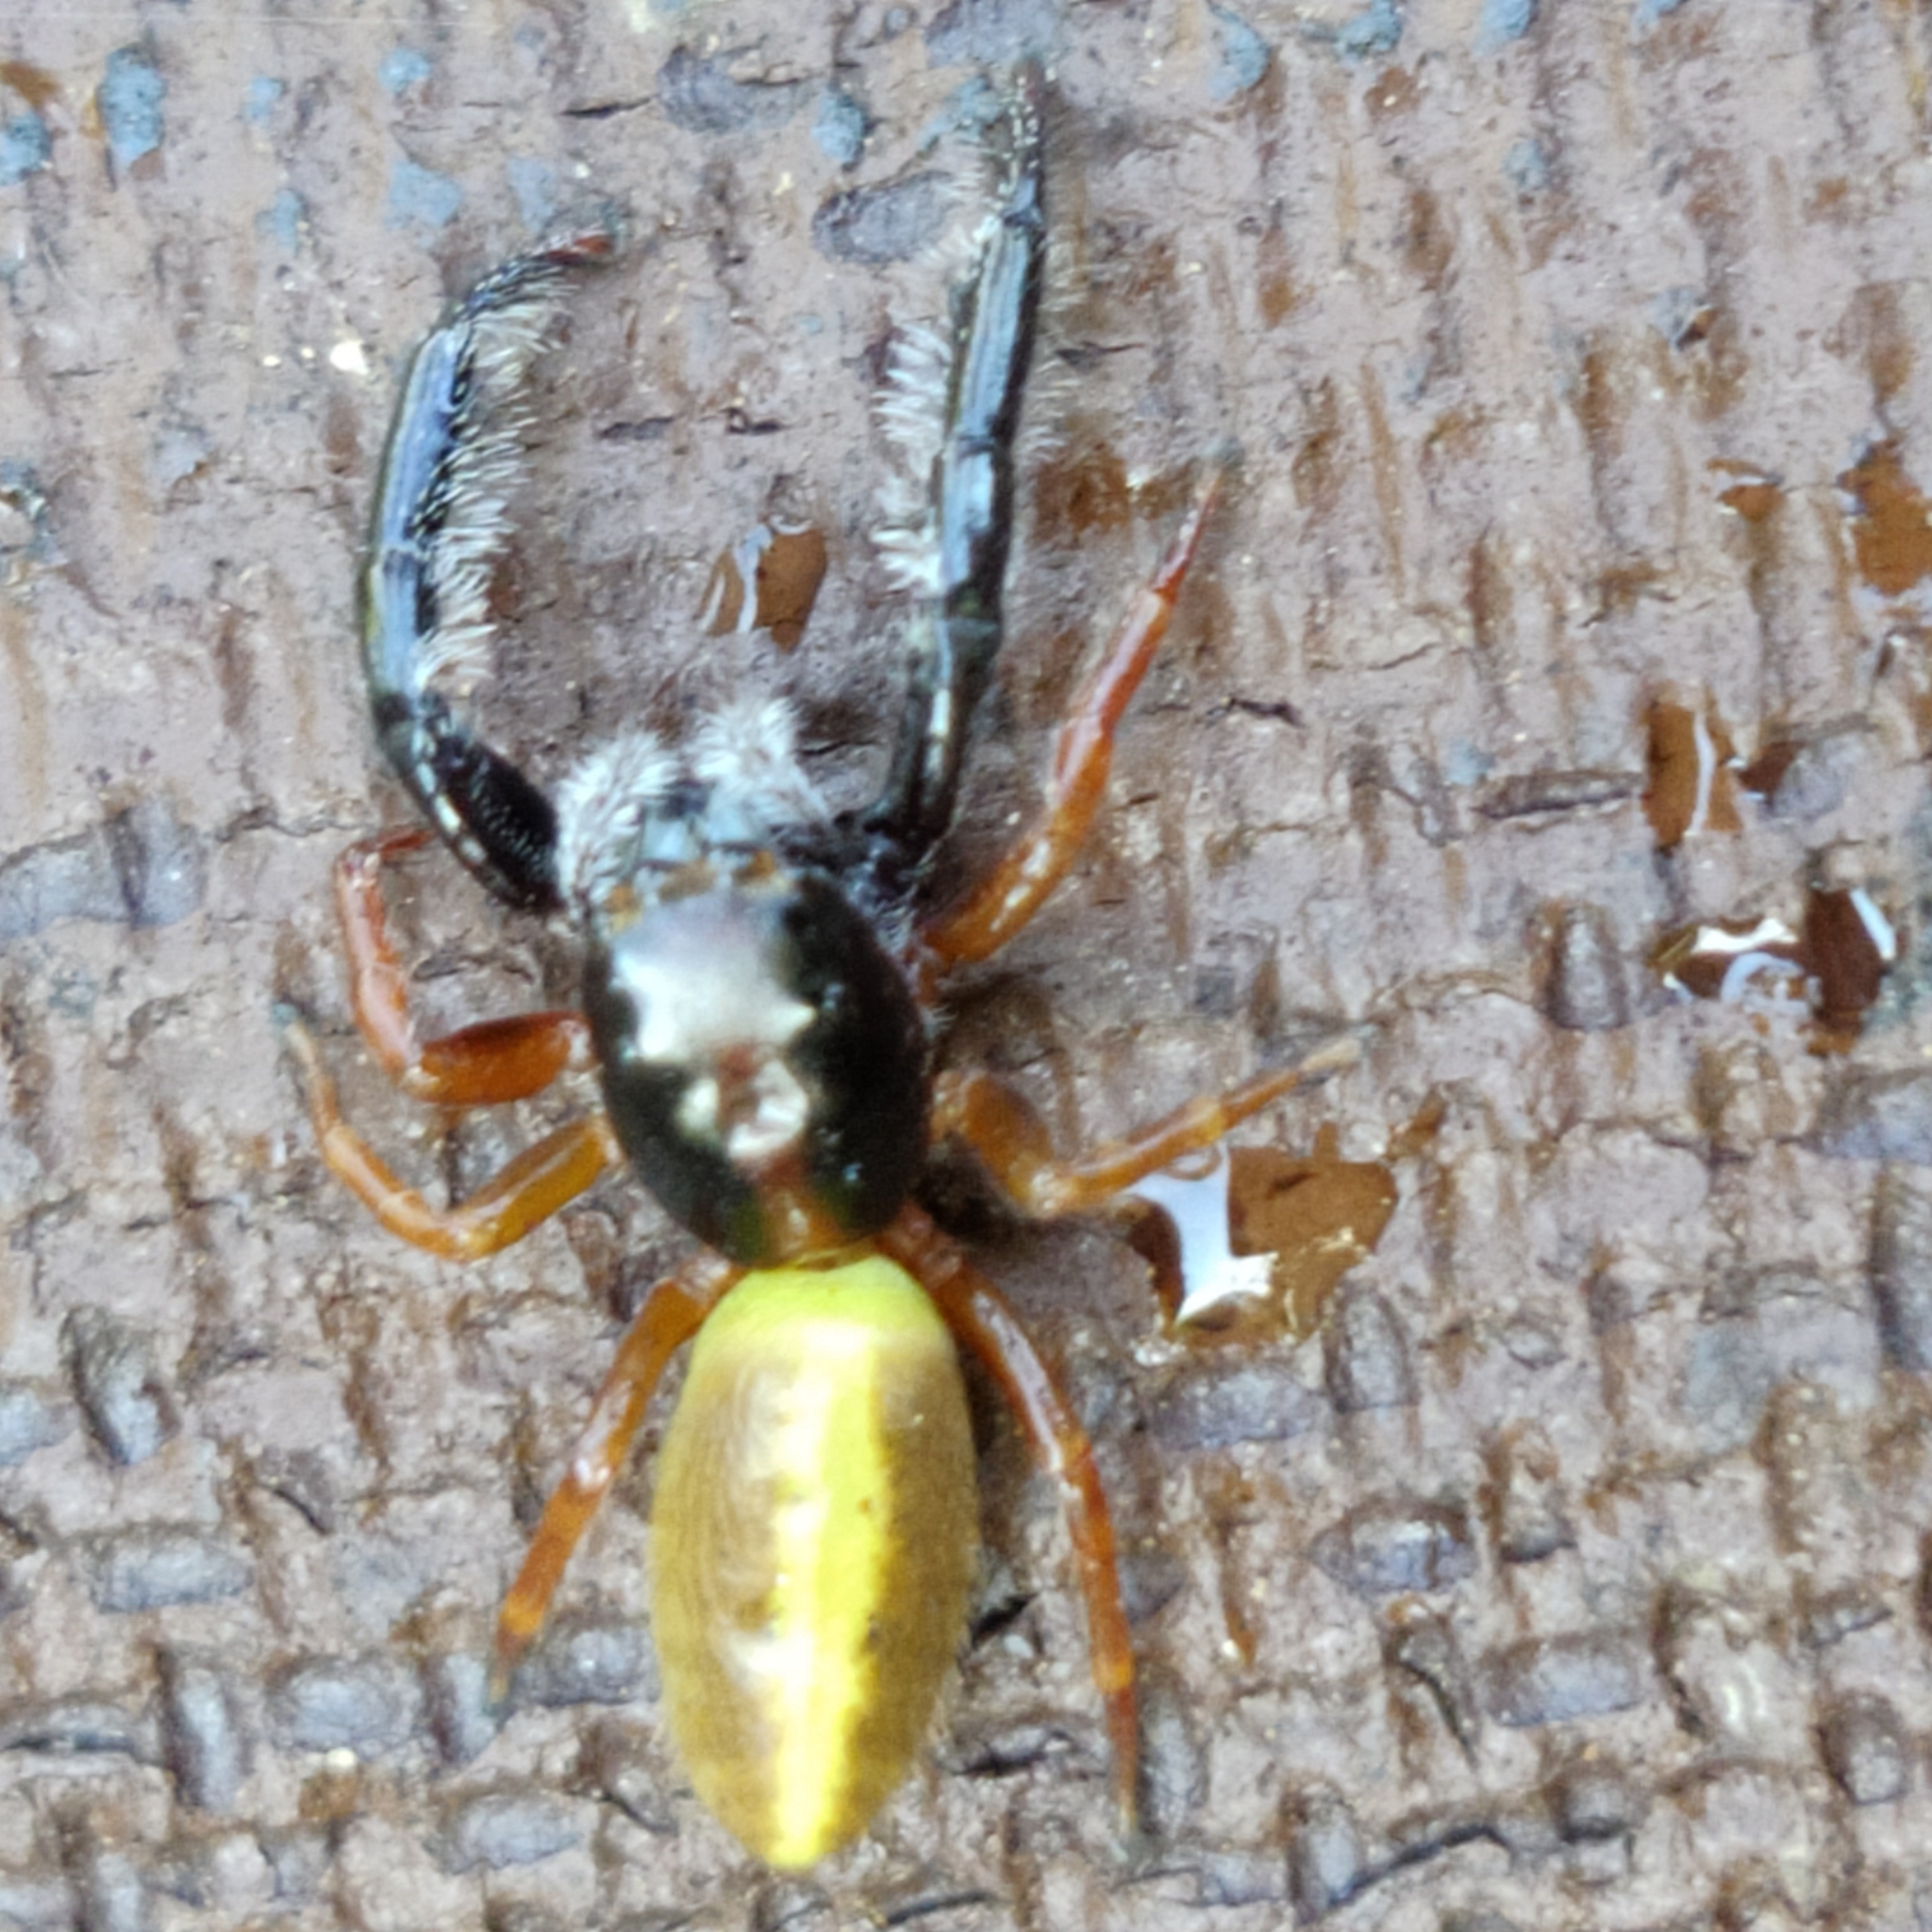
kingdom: Animalia
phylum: Arthropoda
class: Arachnida
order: Araneae
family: Salticidae
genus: Trite
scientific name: Trite planiceps
